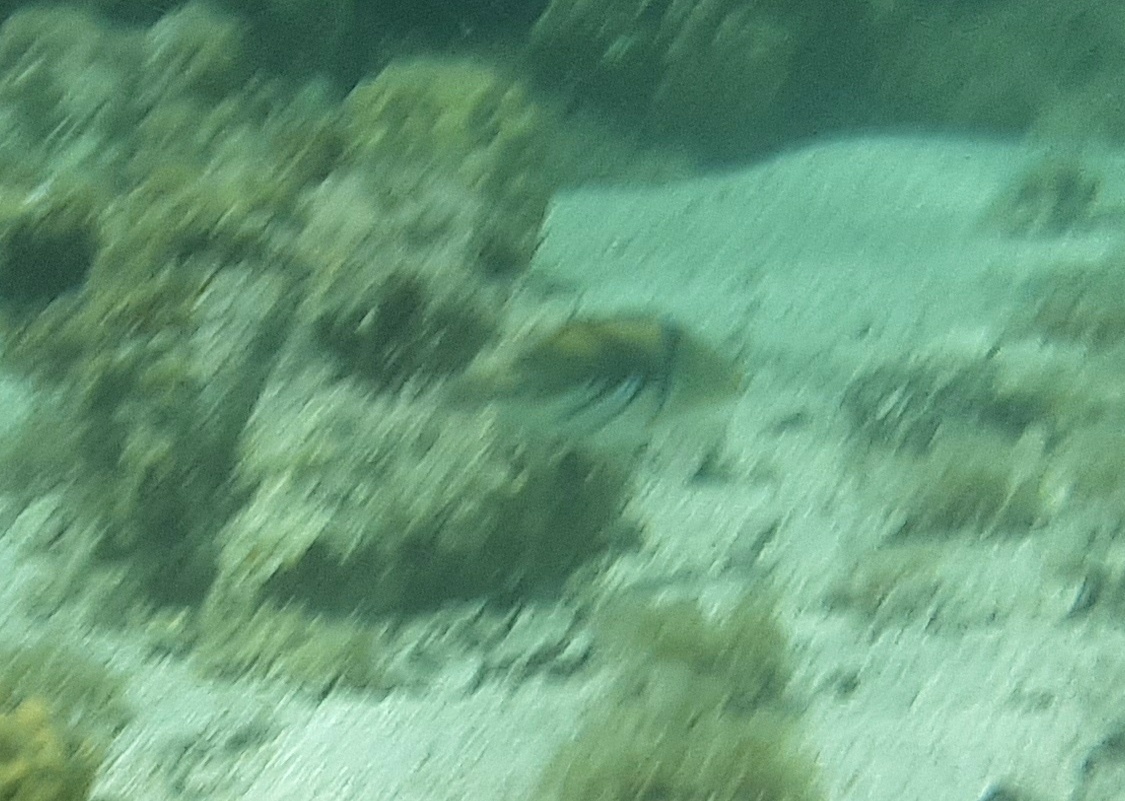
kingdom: Animalia
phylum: Chordata
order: Tetraodontiformes
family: Balistidae
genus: Rhinecanthus
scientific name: Rhinecanthus aculeatus
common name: White-banded triggerfish
